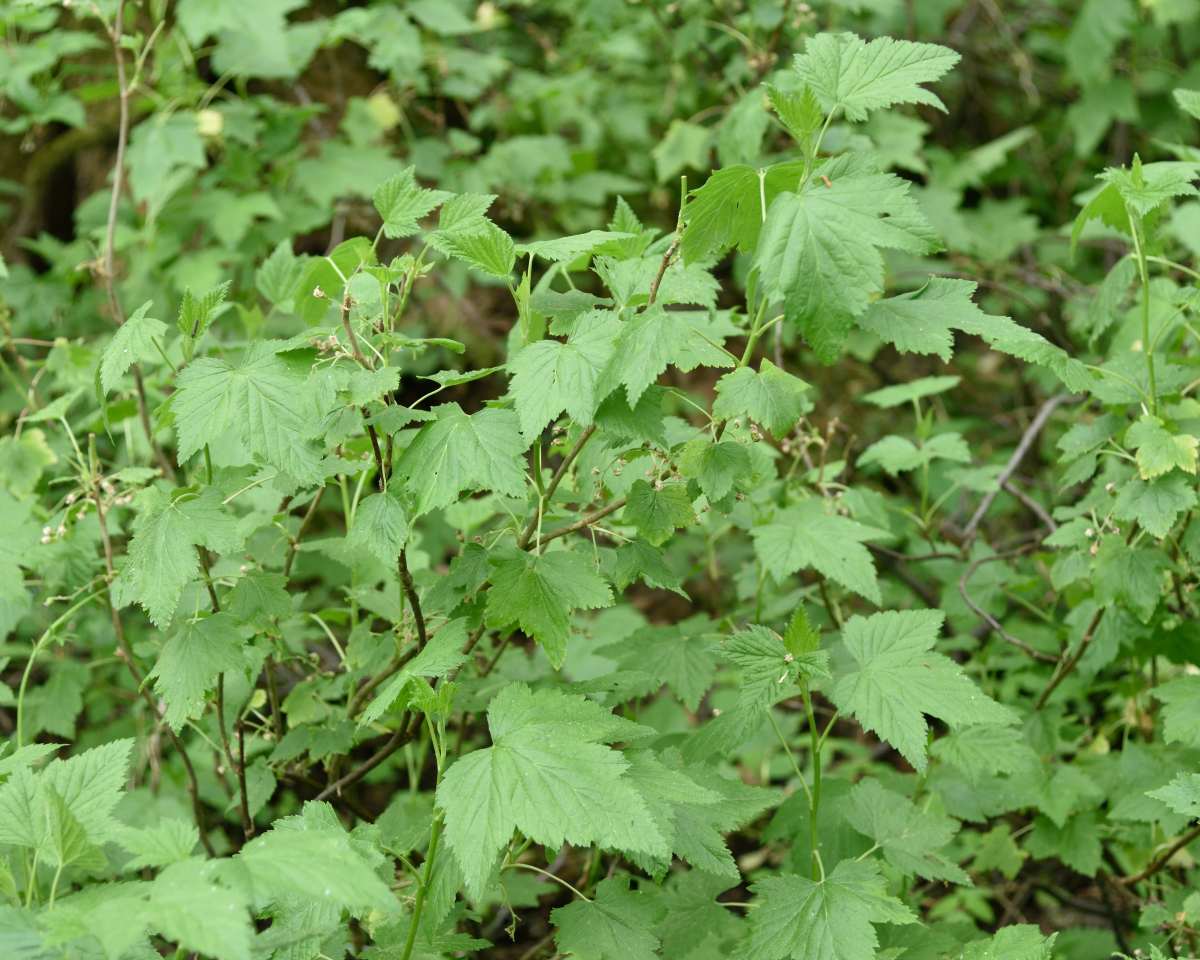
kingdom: Plantae
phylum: Tracheophyta
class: Magnoliopsida
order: Saxifragales
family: Grossulariaceae
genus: Ribes
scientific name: Ribes nigrum
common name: Black currant
